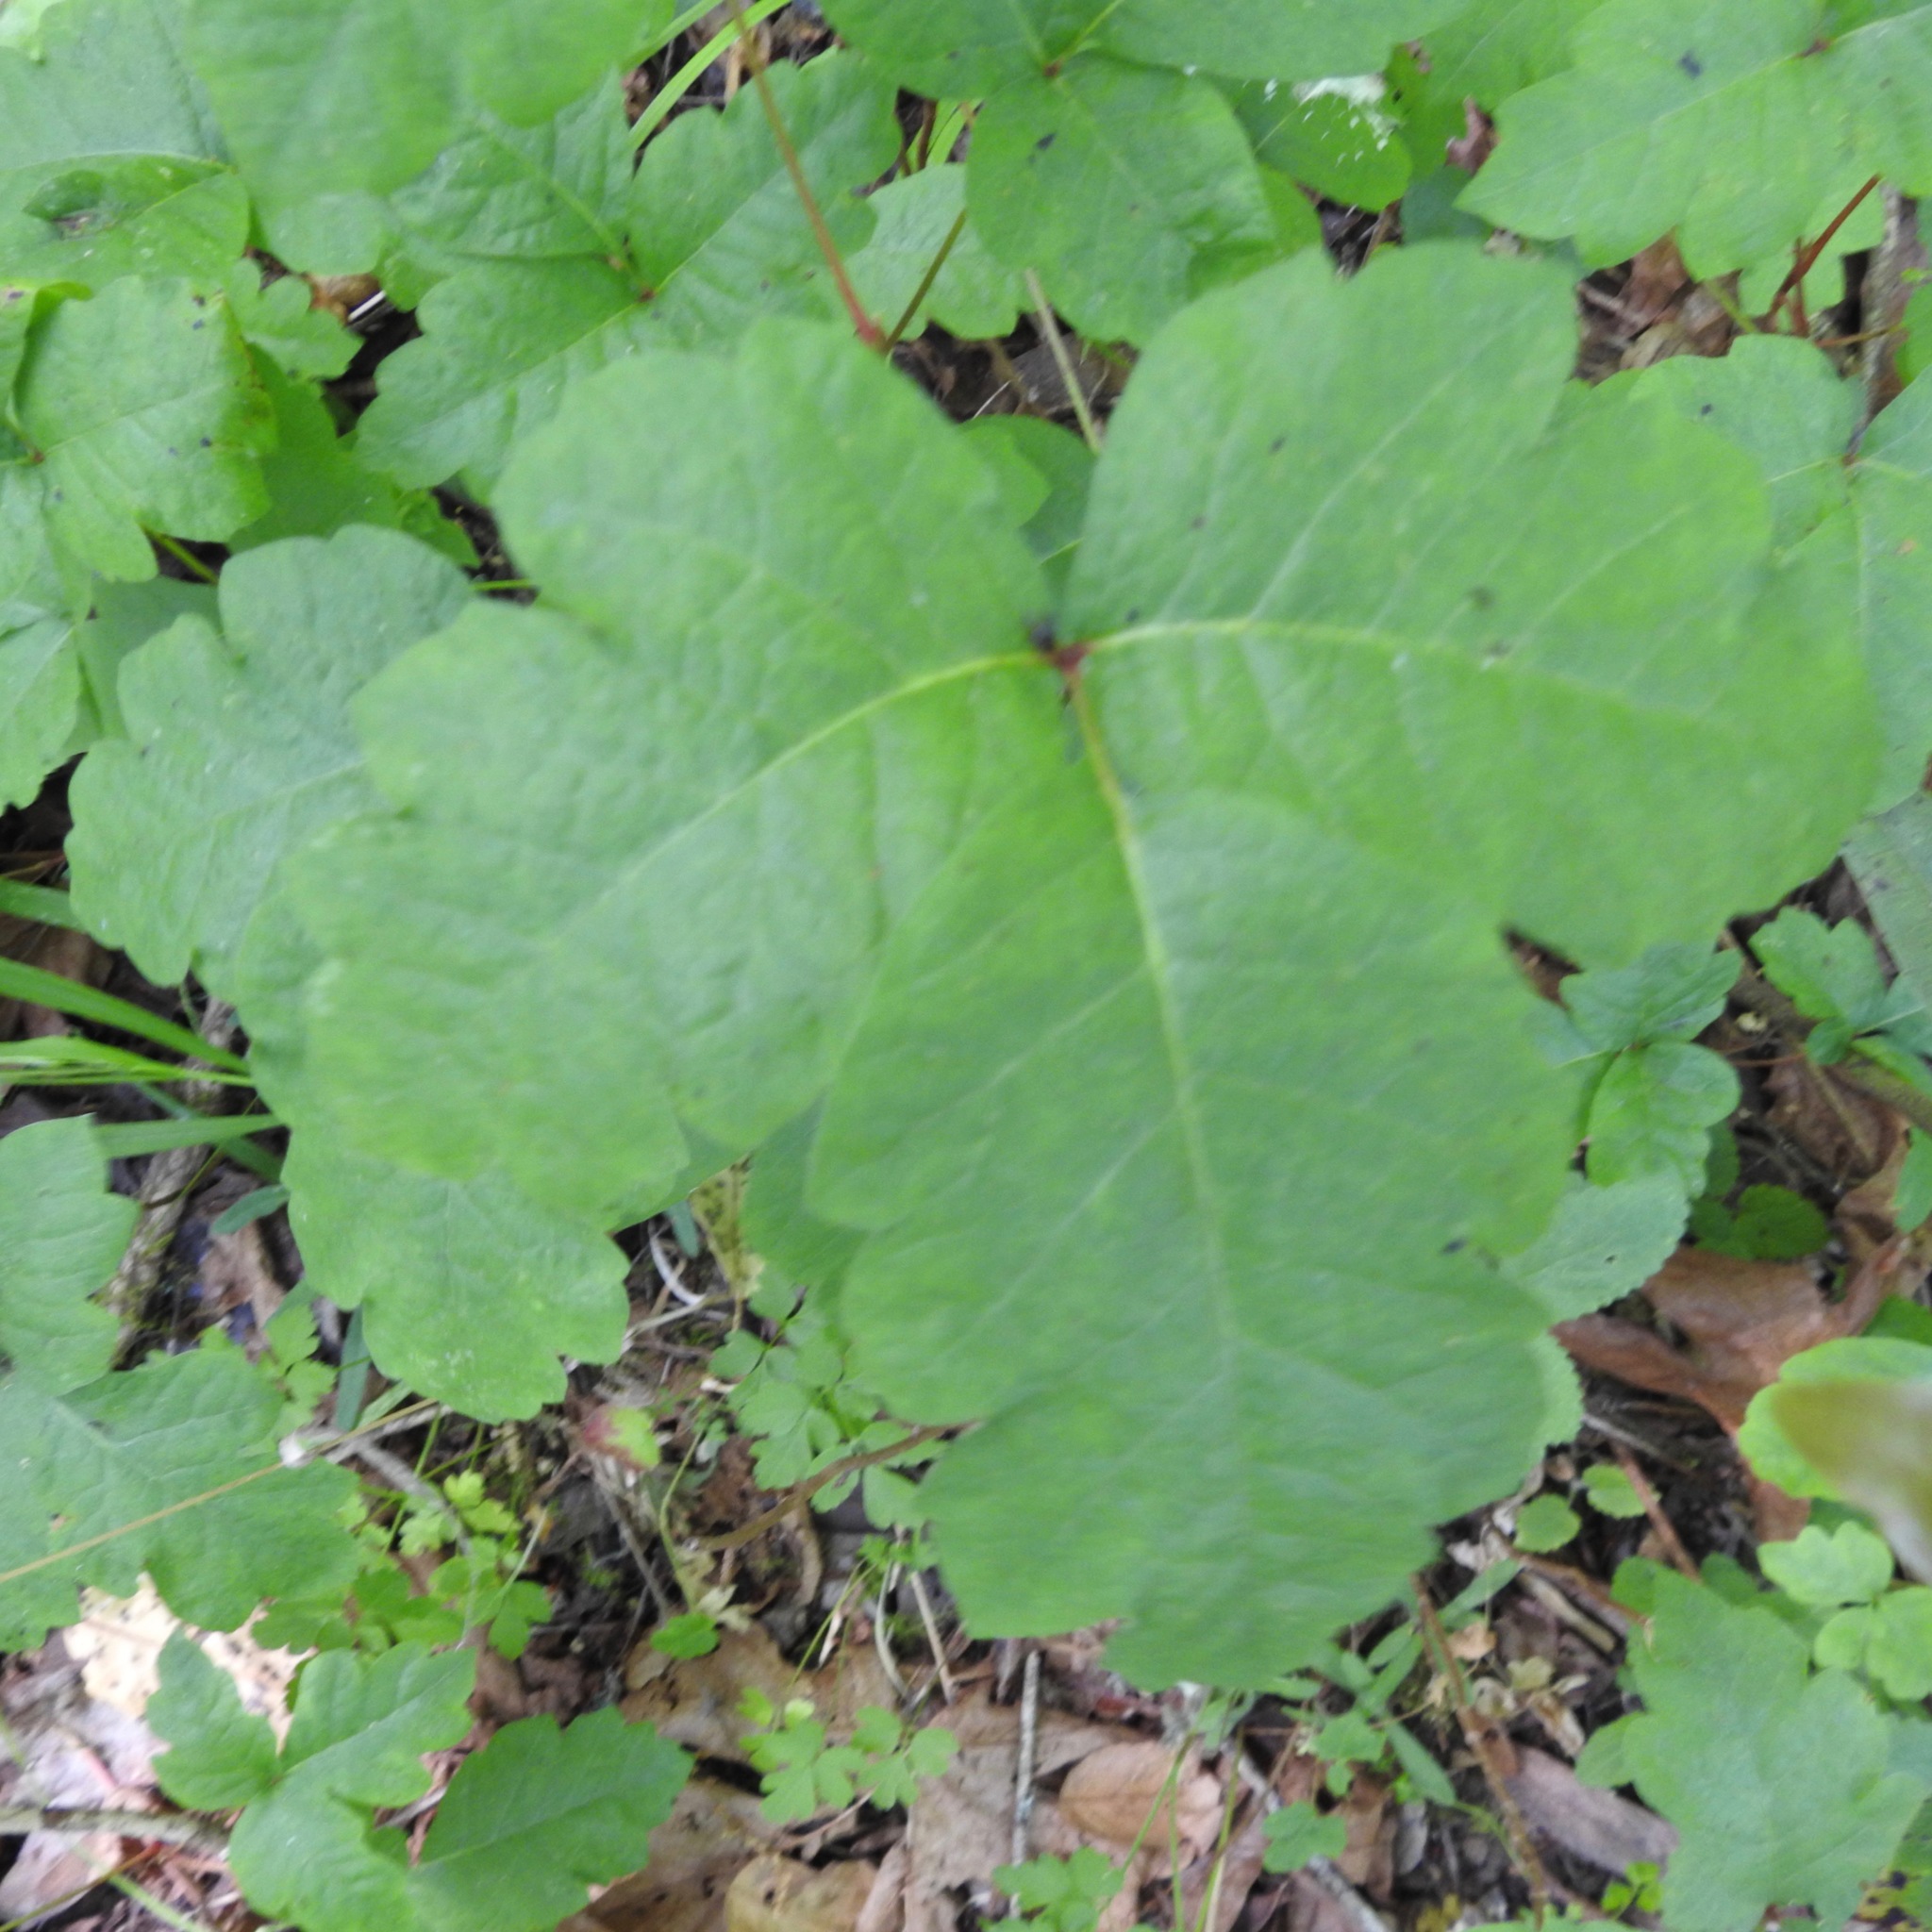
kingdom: Plantae
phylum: Tracheophyta
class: Magnoliopsida
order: Sapindales
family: Anacardiaceae
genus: Toxicodendron
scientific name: Toxicodendron diversilobum
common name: Pacific poison-oak
